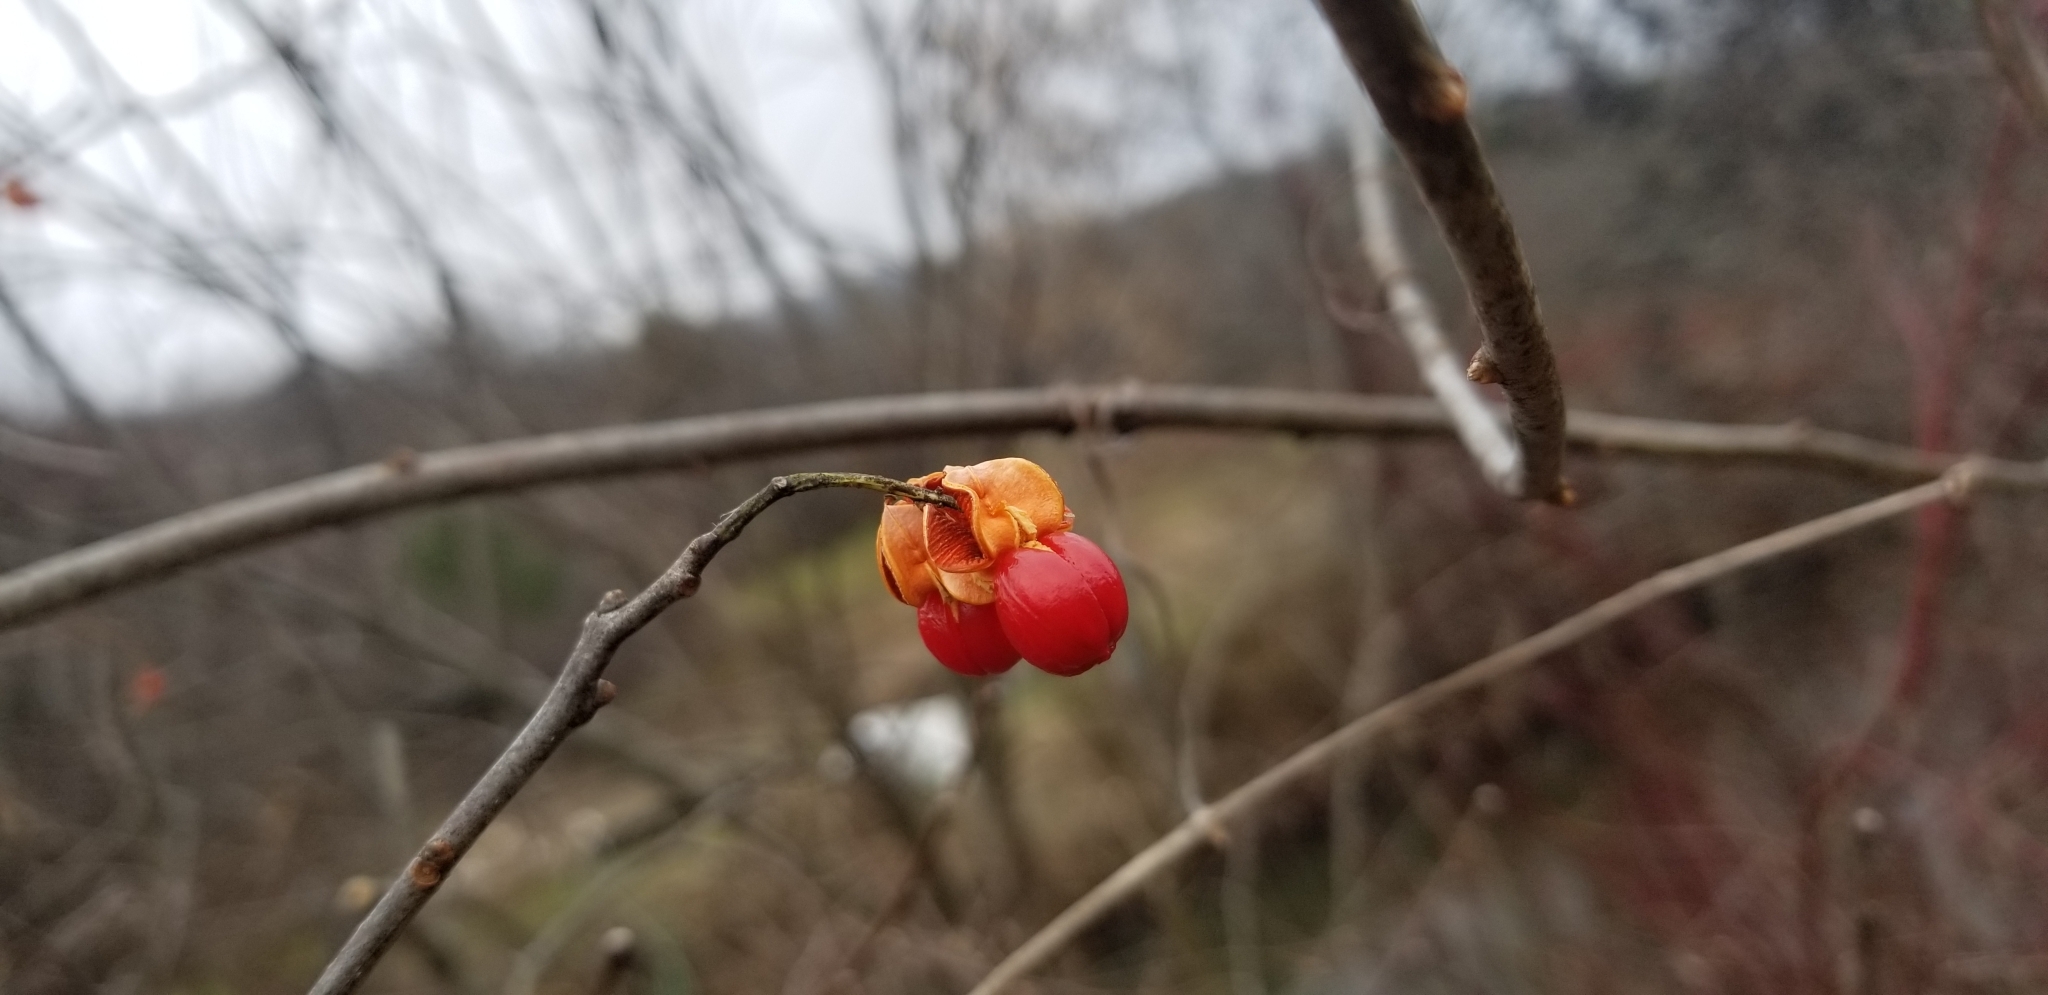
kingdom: Plantae
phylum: Tracheophyta
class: Magnoliopsida
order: Celastrales
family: Celastraceae
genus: Celastrus
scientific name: Celastrus scandens
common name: American bittersweet
